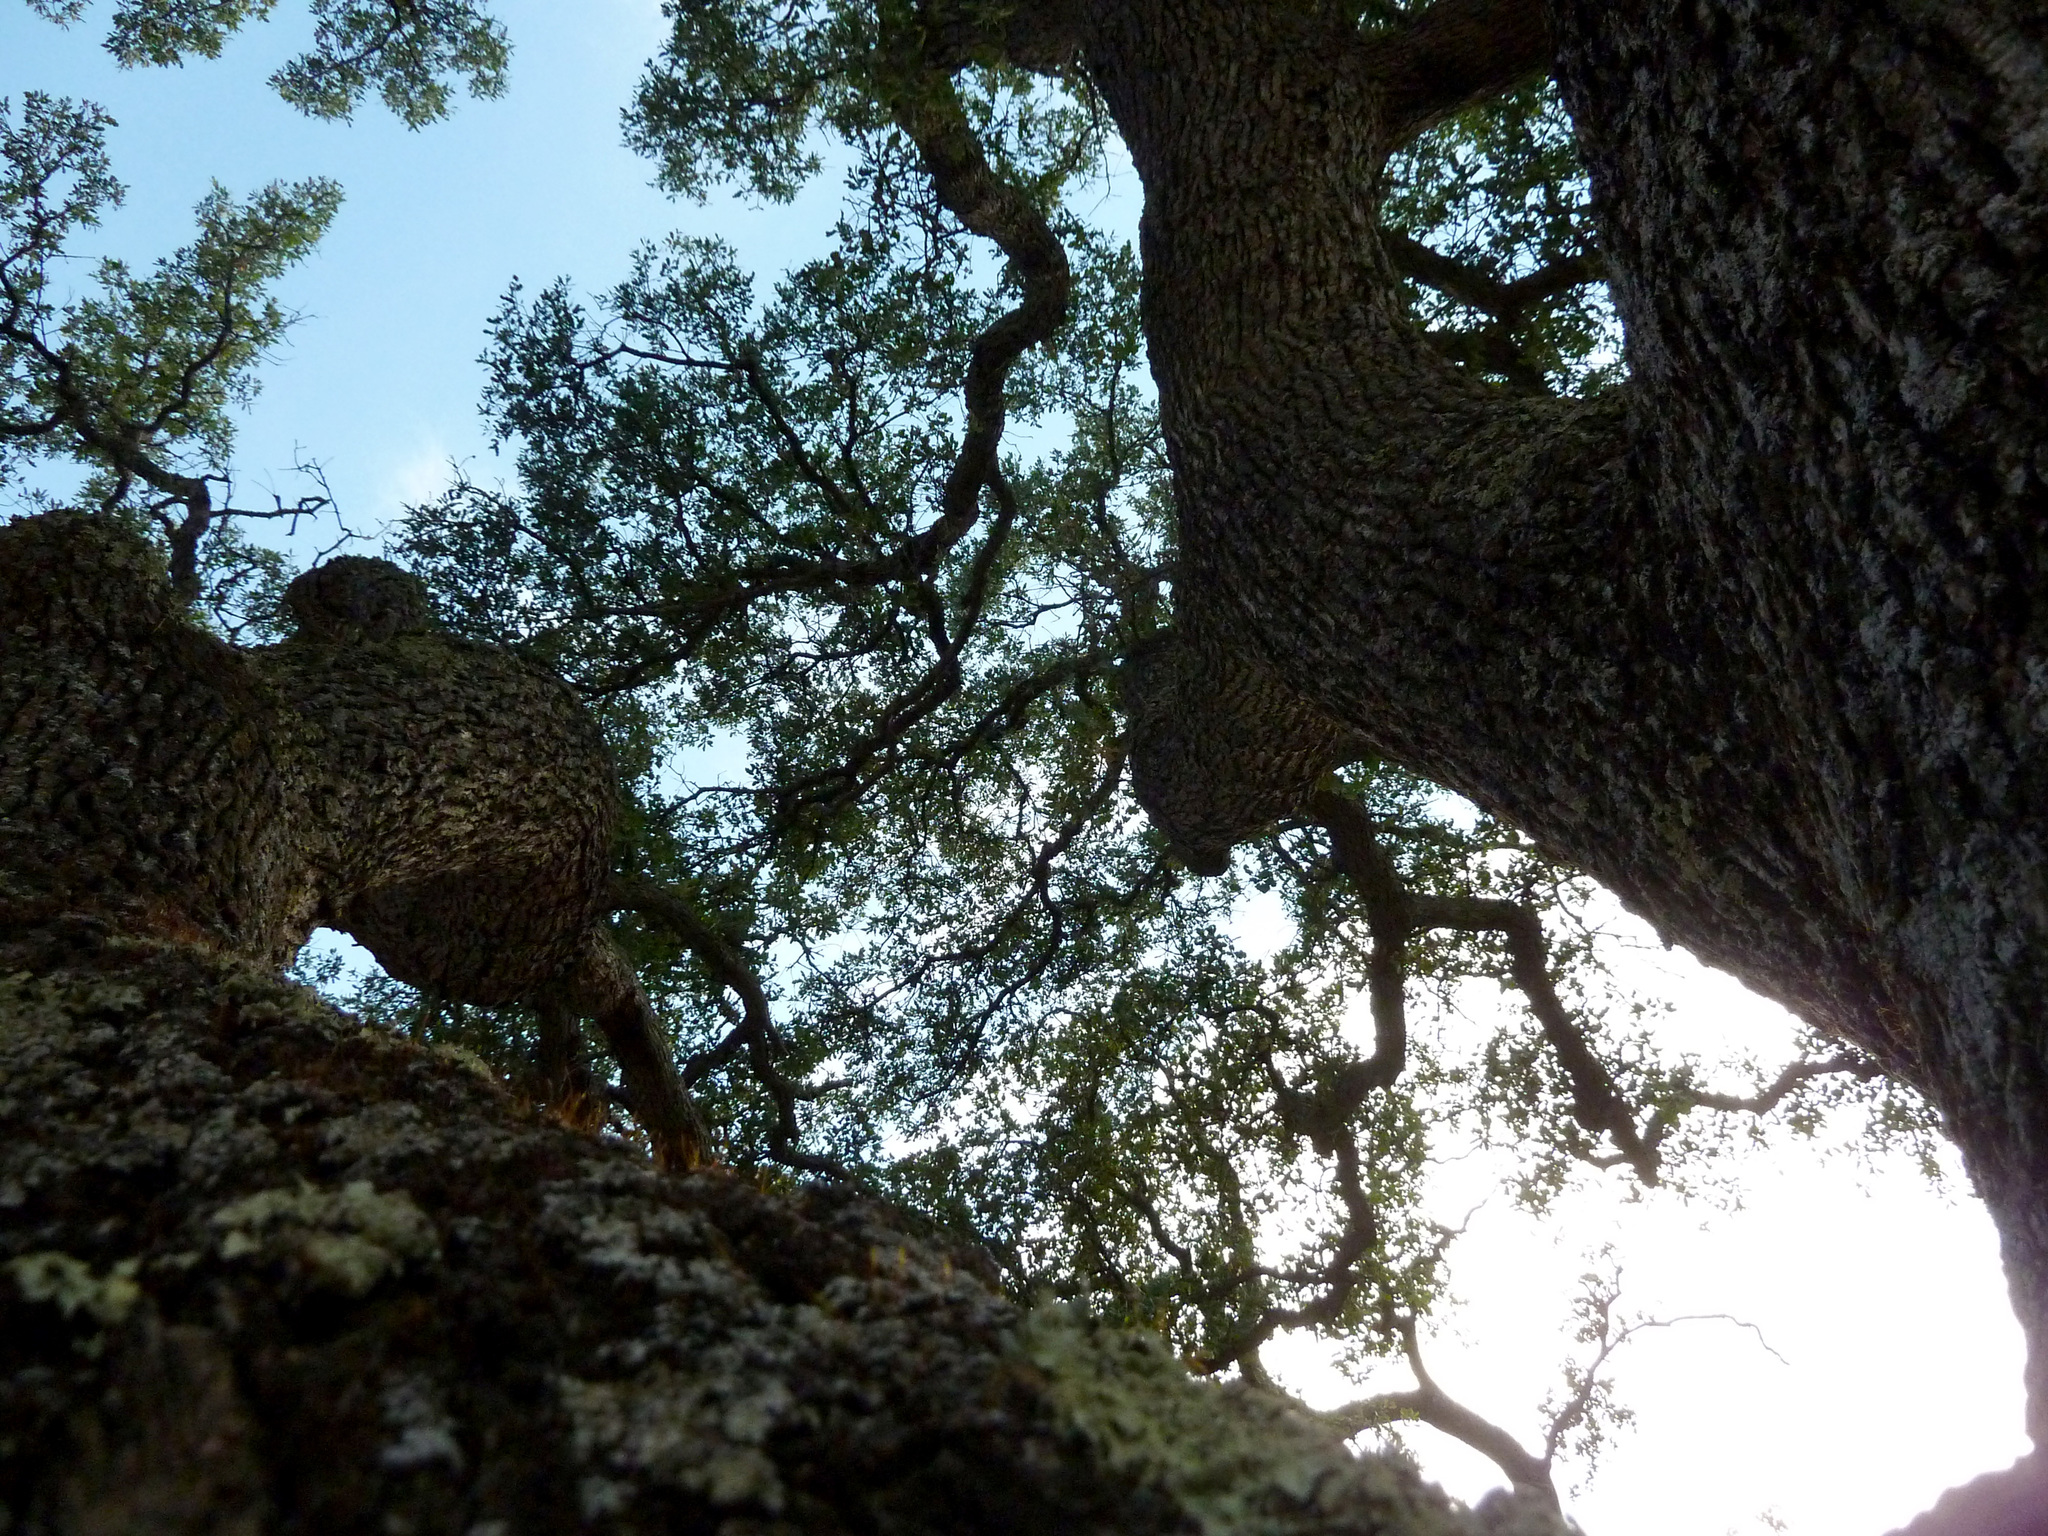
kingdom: Plantae
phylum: Tracheophyta
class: Magnoliopsida
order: Fagales
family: Fagaceae
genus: Quercus
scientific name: Quercus douglasii
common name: Blue oak
